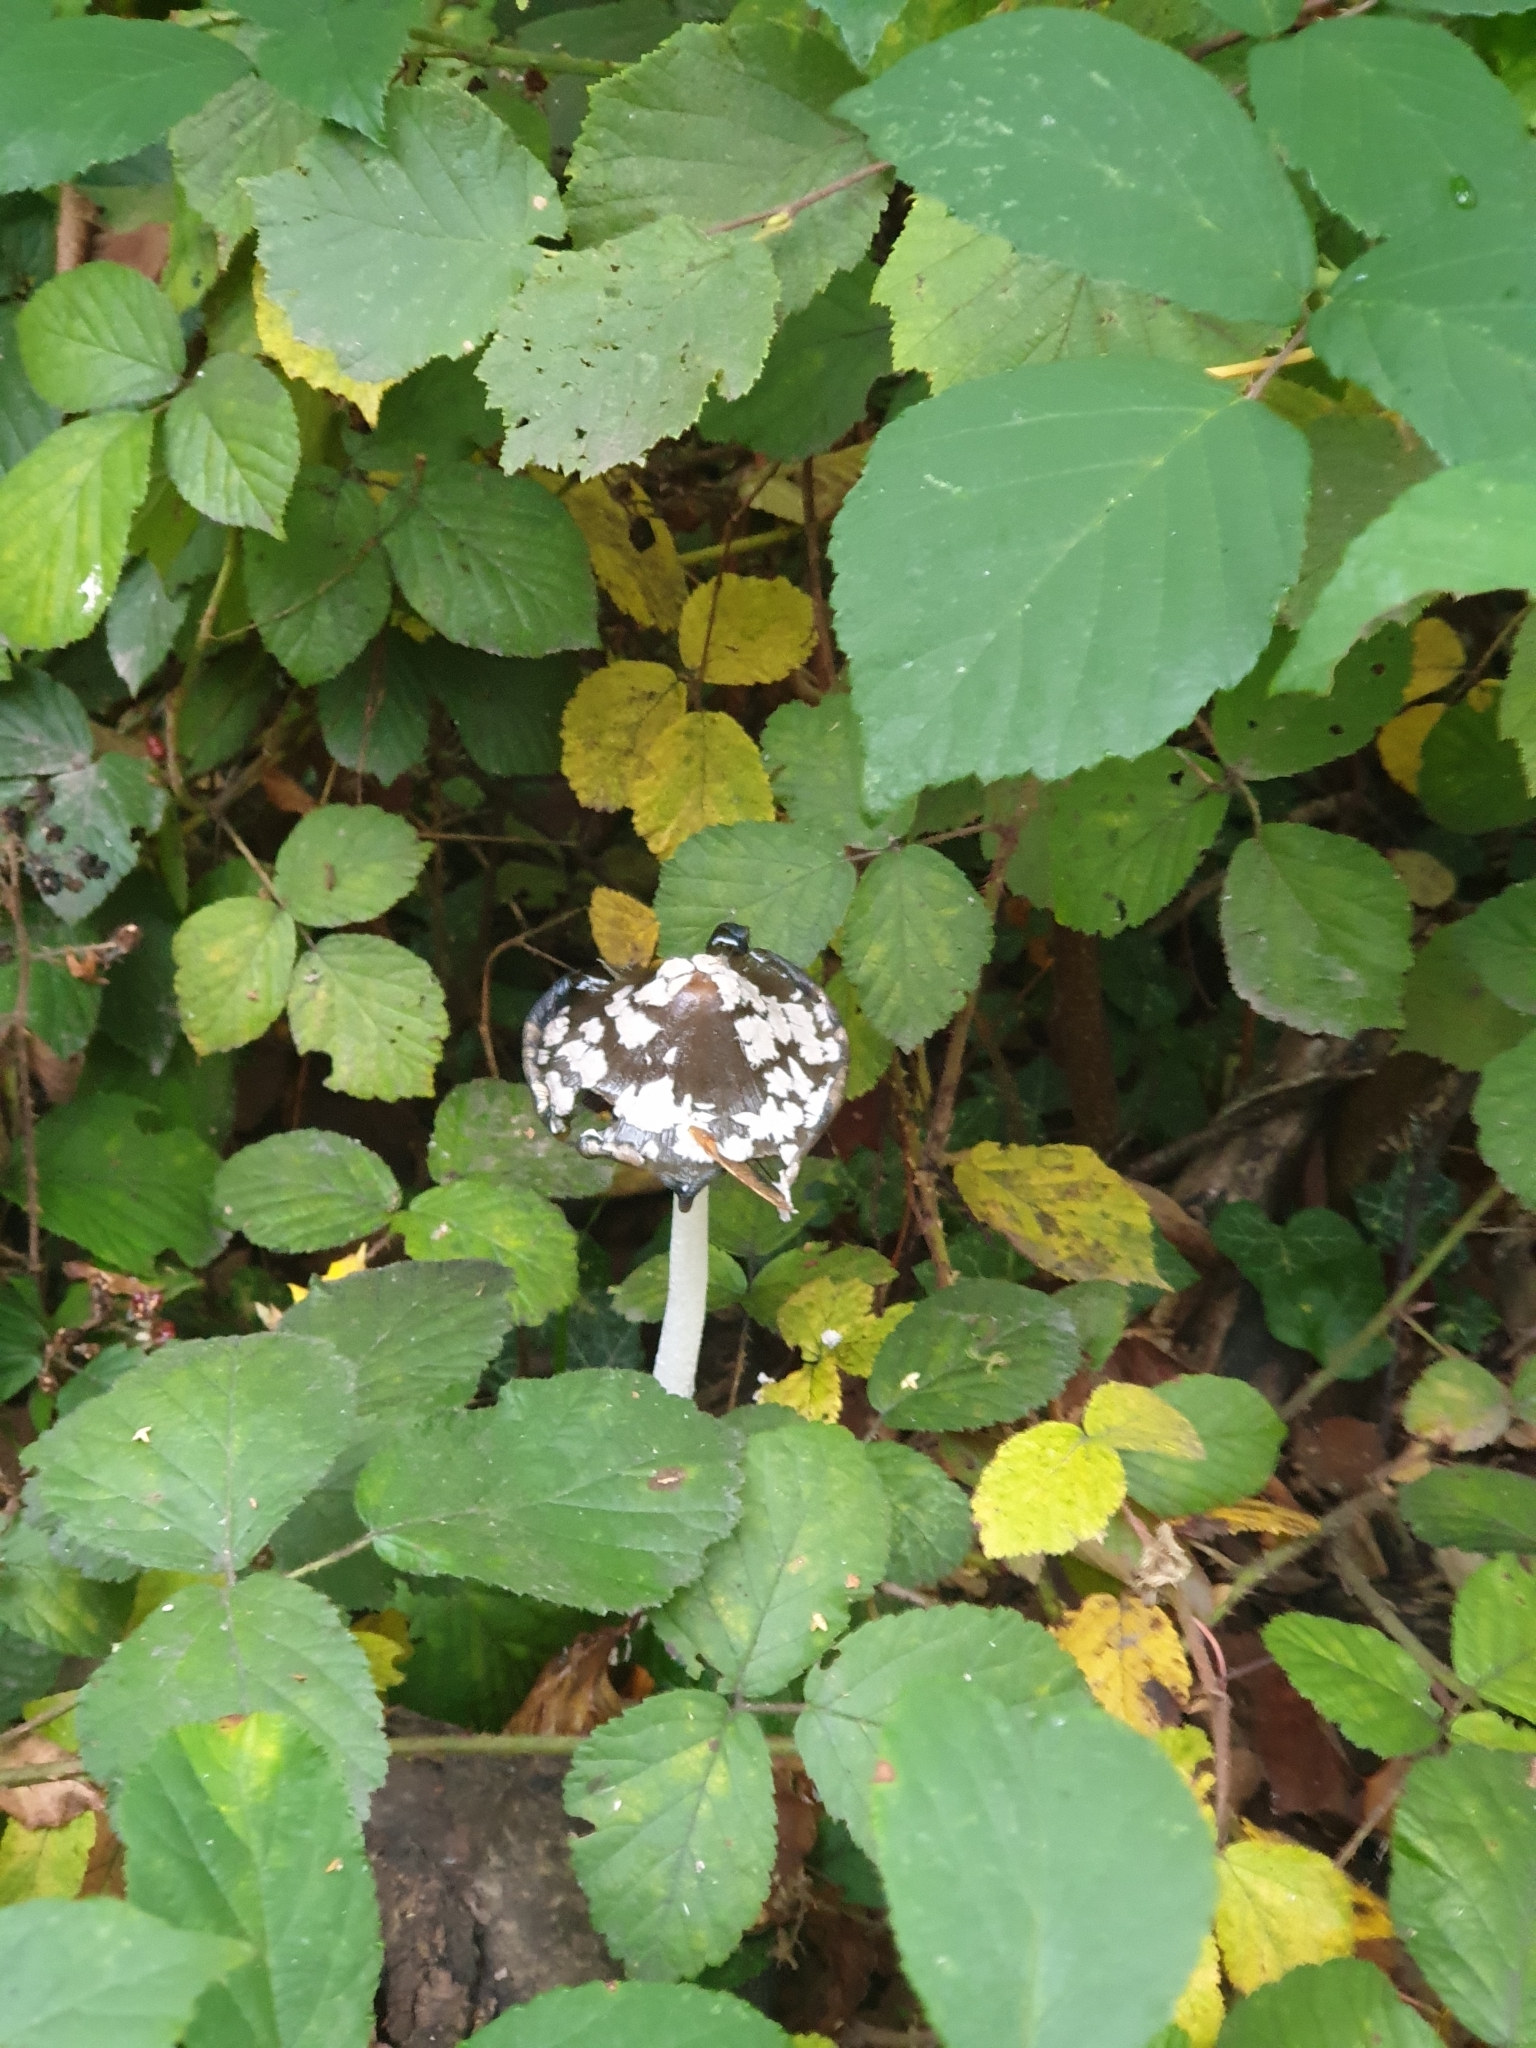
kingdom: Fungi
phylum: Basidiomycota
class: Agaricomycetes
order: Agaricales
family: Psathyrellaceae
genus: Coprinopsis
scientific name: Coprinopsis picacea
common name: Magpie inkcap
